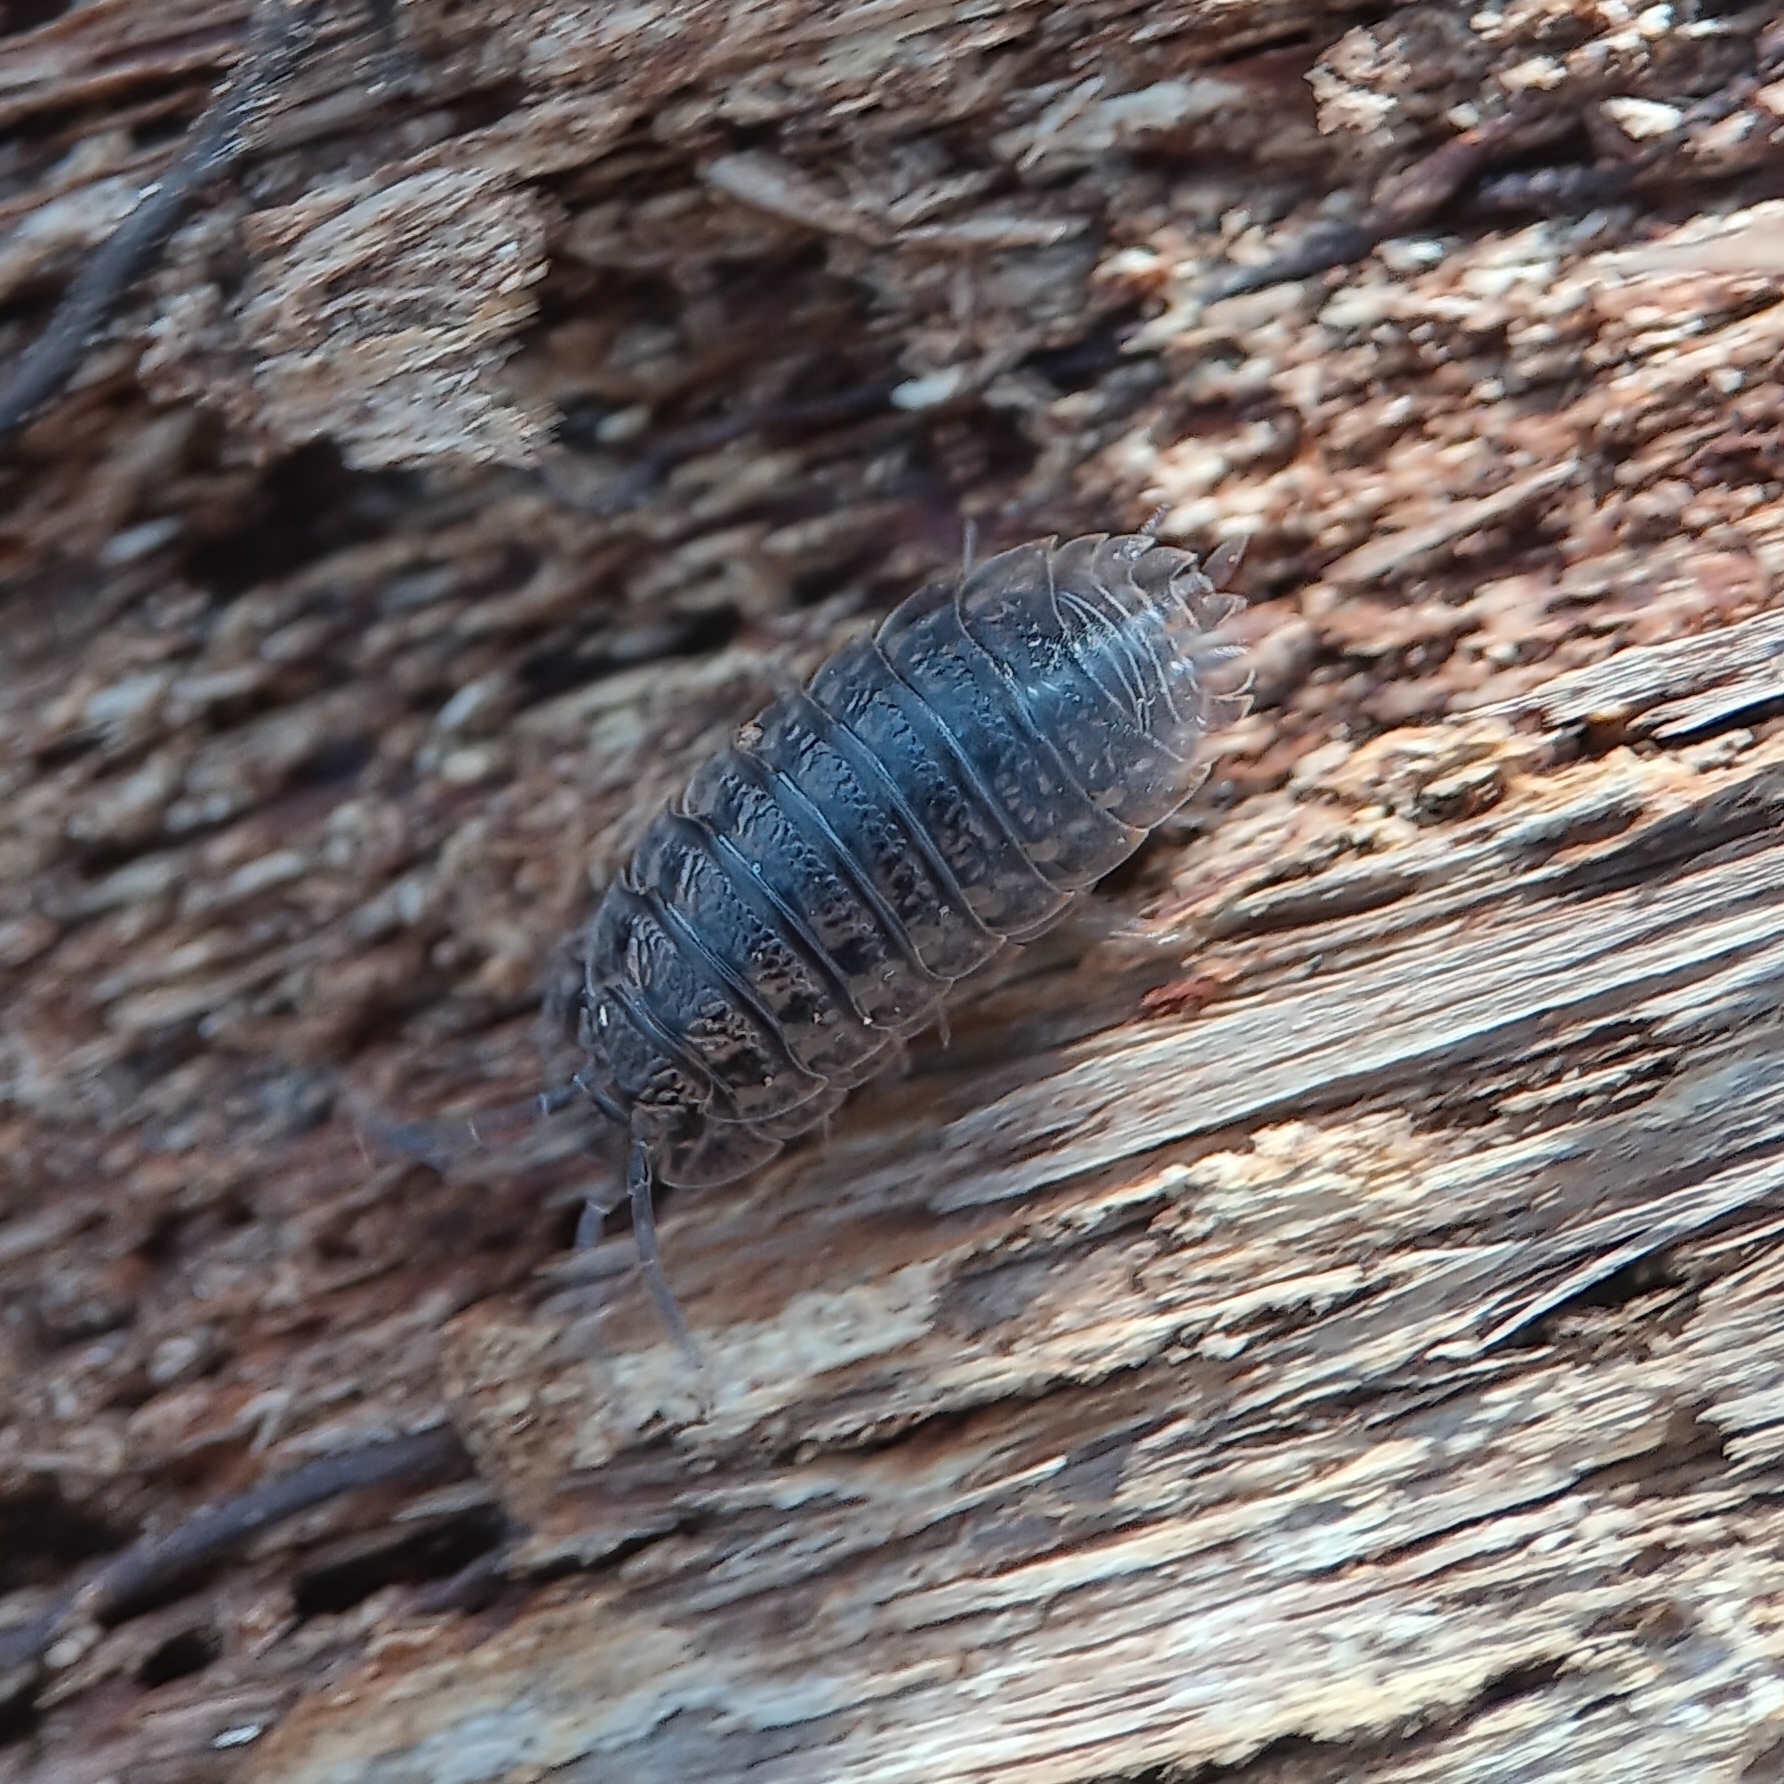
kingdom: Animalia
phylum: Arthropoda
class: Malacostraca
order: Isopoda
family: Trachelipodidae
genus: Trachelipus
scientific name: Trachelipus rathkii
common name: Isopod
